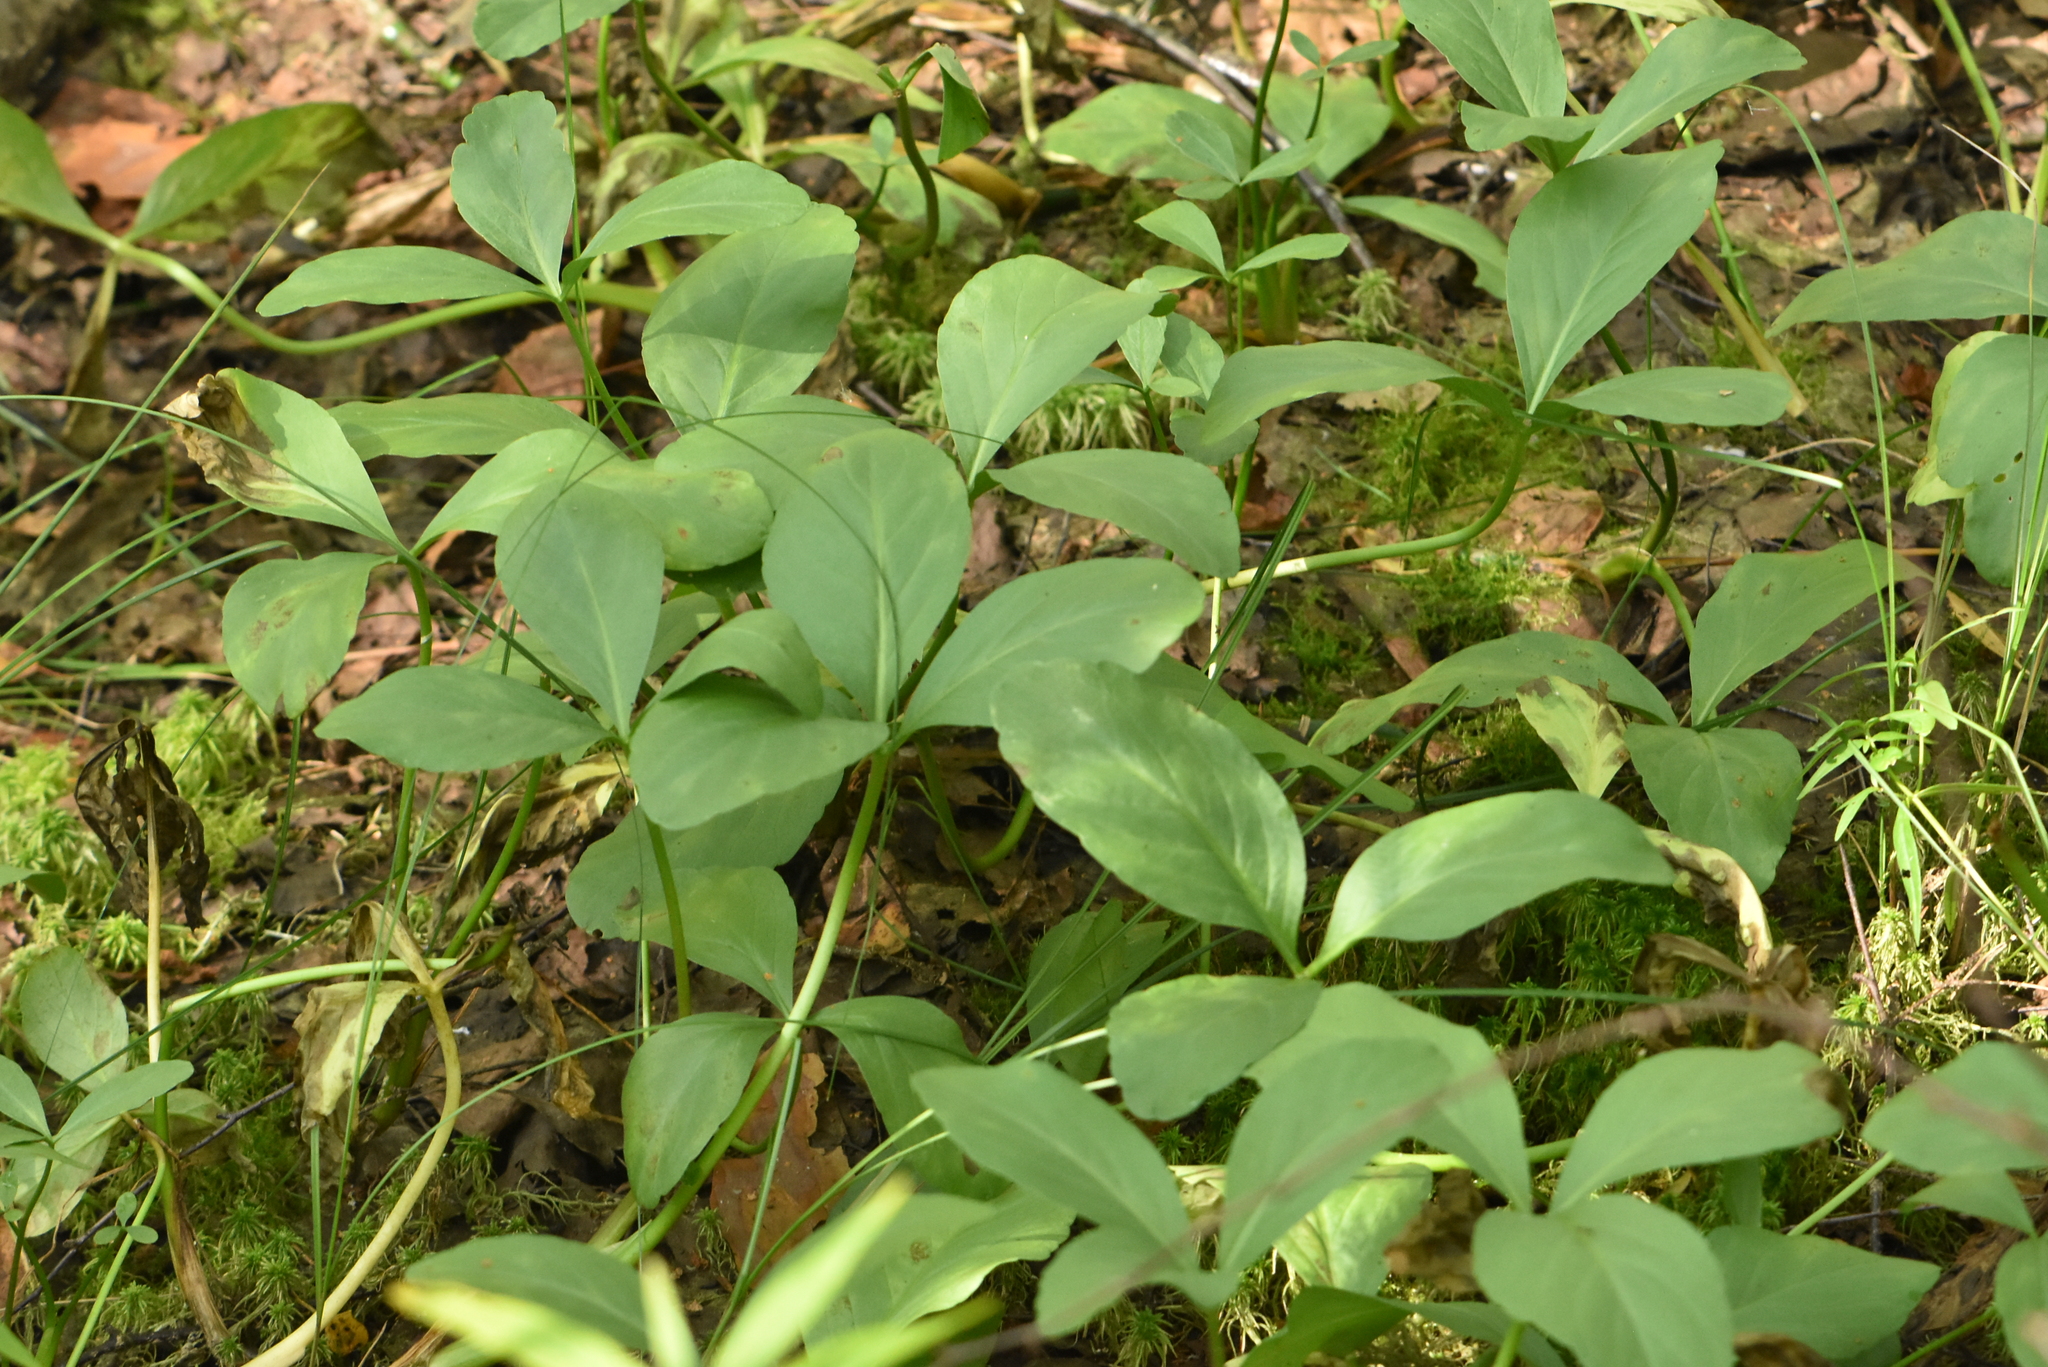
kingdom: Plantae
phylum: Tracheophyta
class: Magnoliopsida
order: Asterales
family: Menyanthaceae
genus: Menyanthes
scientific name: Menyanthes trifoliata
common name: Bogbean
